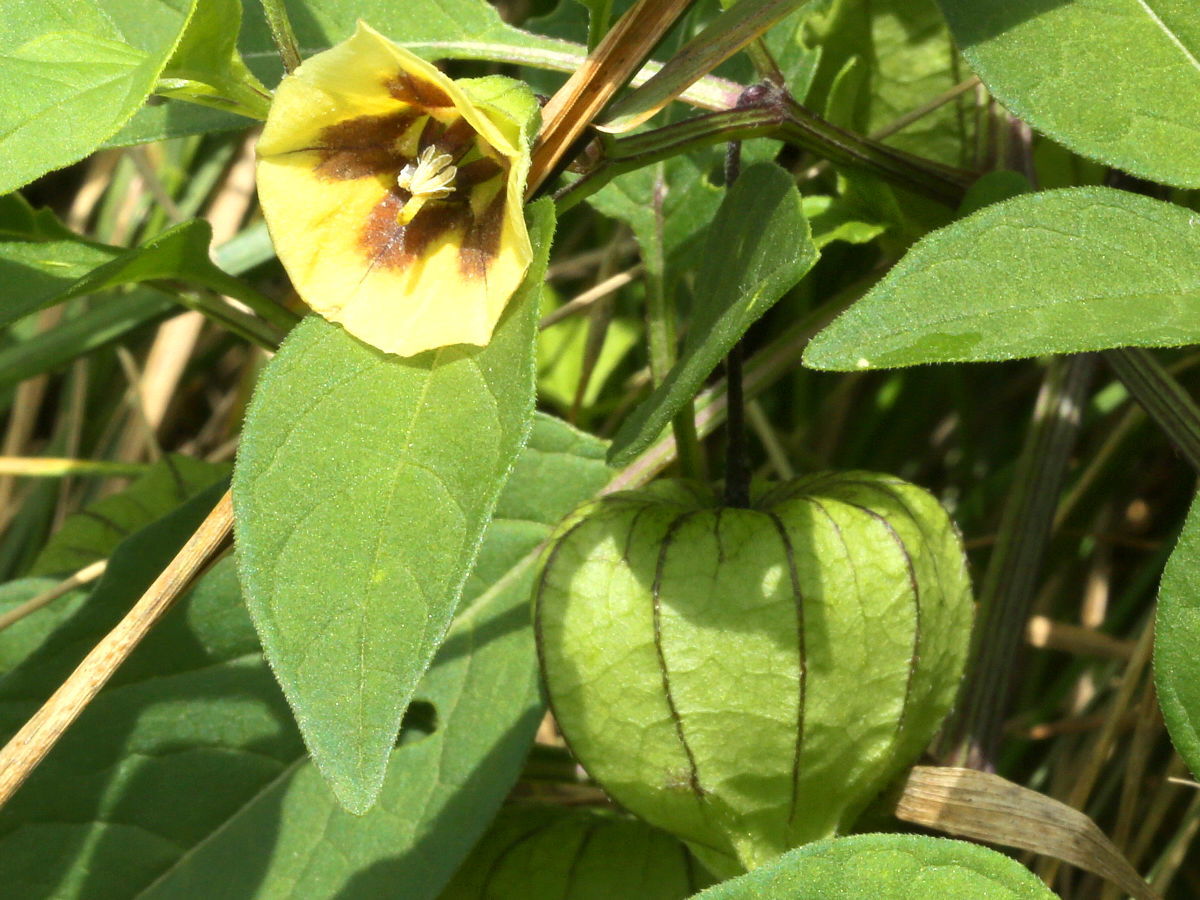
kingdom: Plantae
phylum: Tracheophyta
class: Magnoliopsida
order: Solanales
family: Solanaceae
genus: Physalis
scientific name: Physalis longifolia
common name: Common ground-cherry
